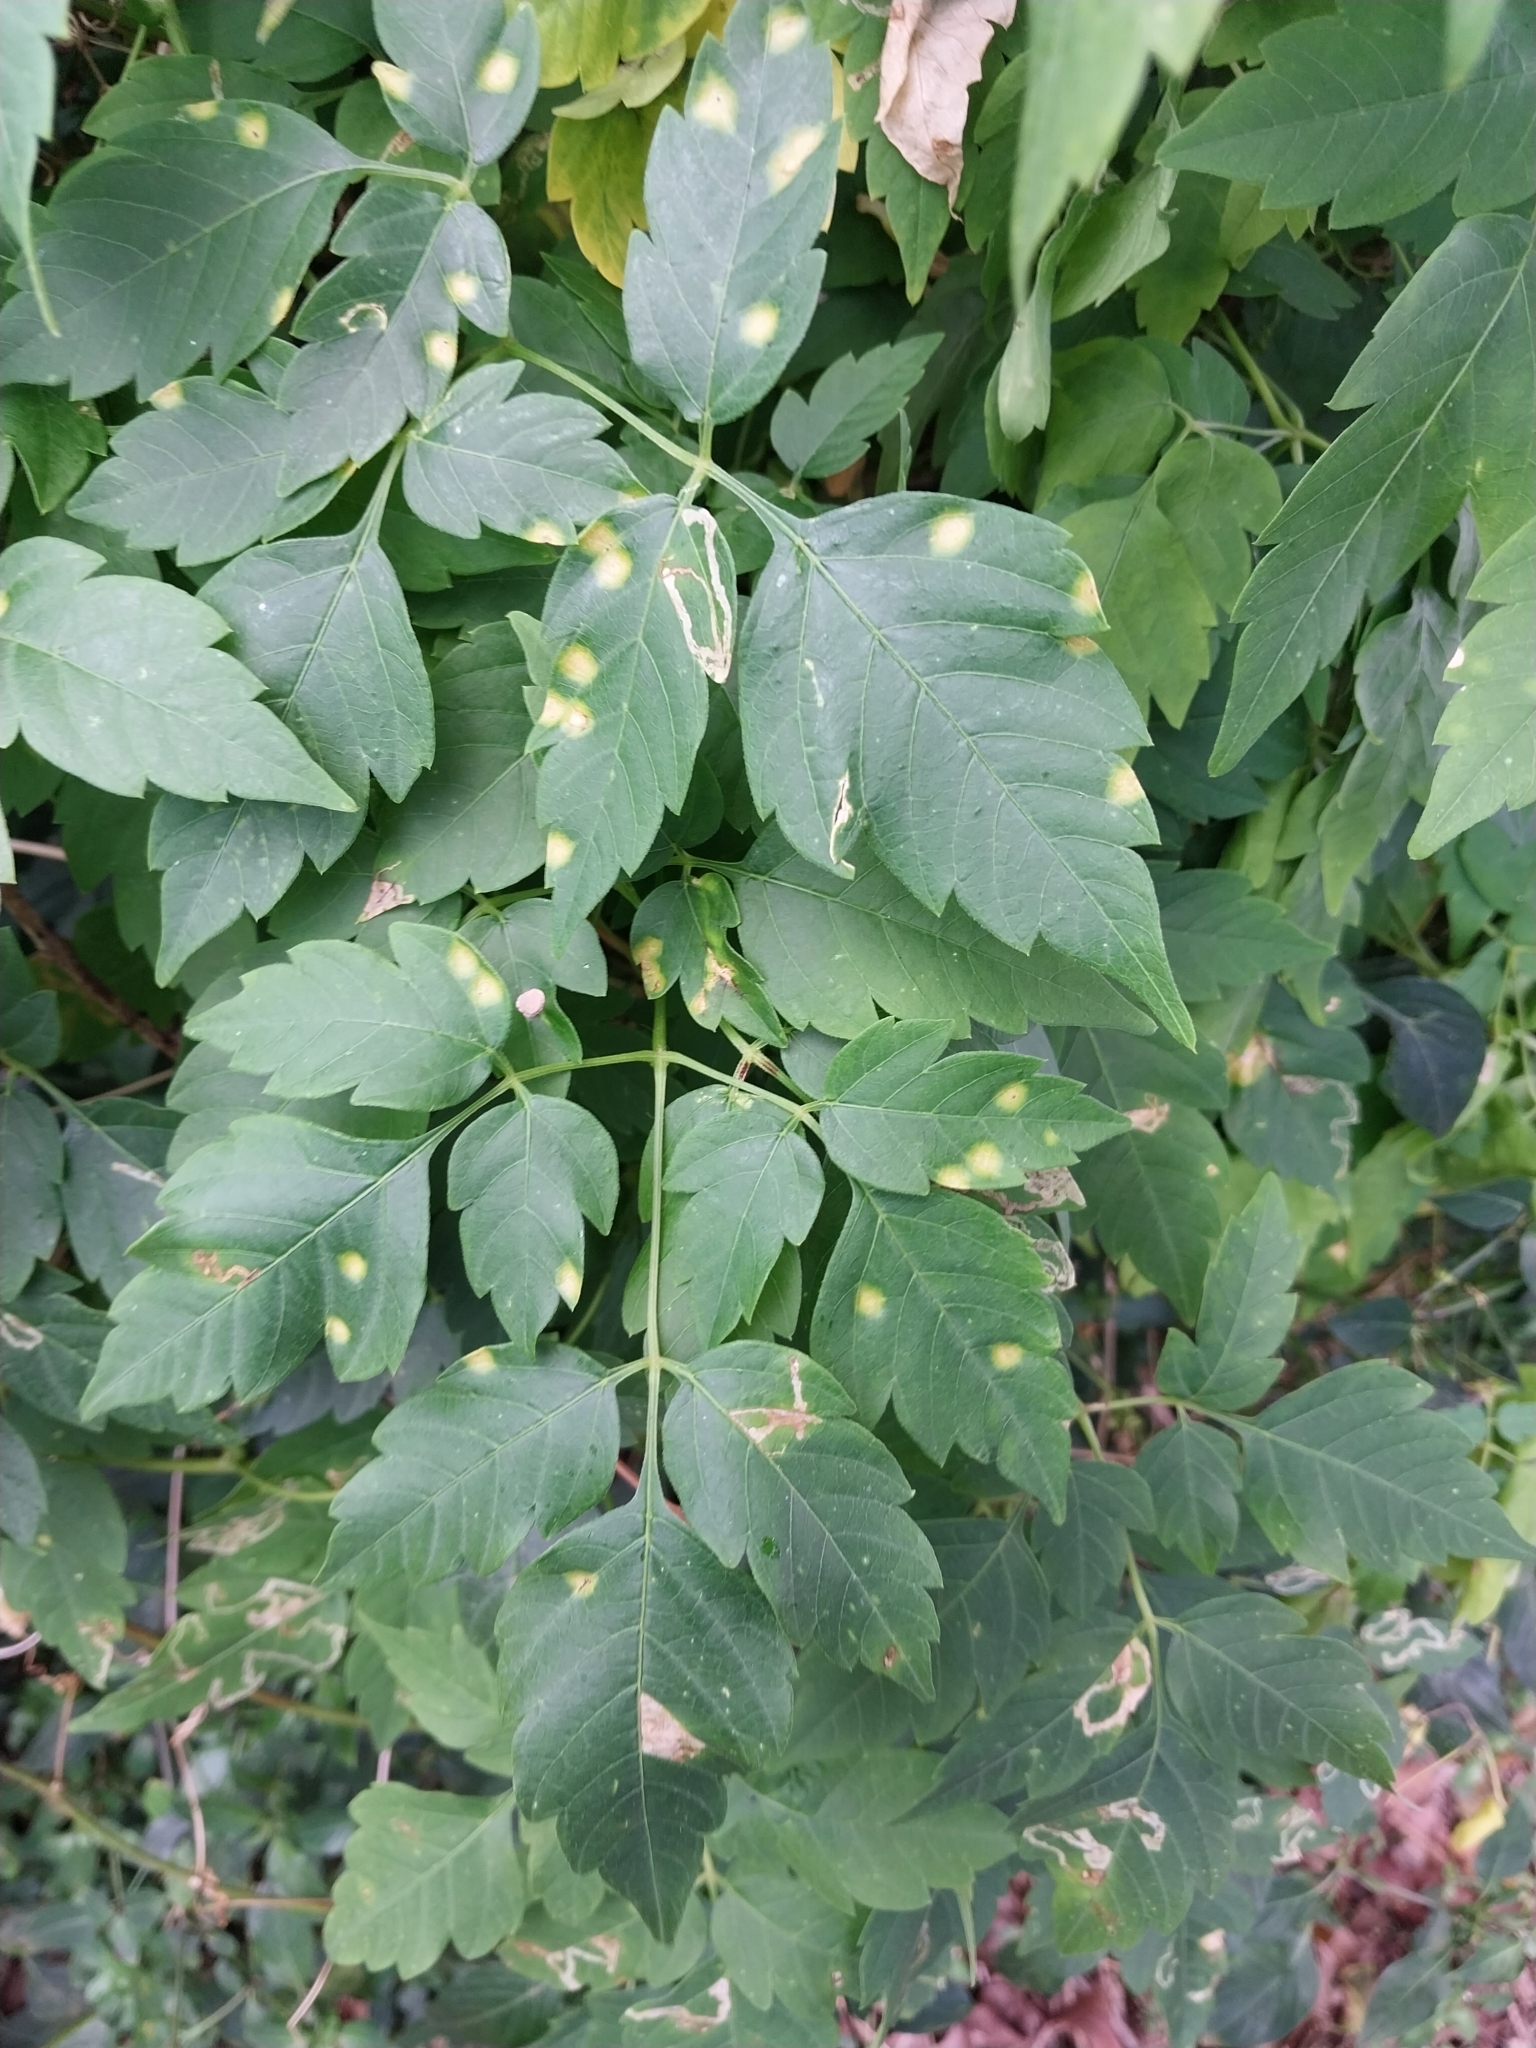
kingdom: Fungi
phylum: Basidiomycota
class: Pucciniomycetes
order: Pucciniales
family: Pucciniaceae
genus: Puccinia
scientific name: Puccinia arechavaletae
